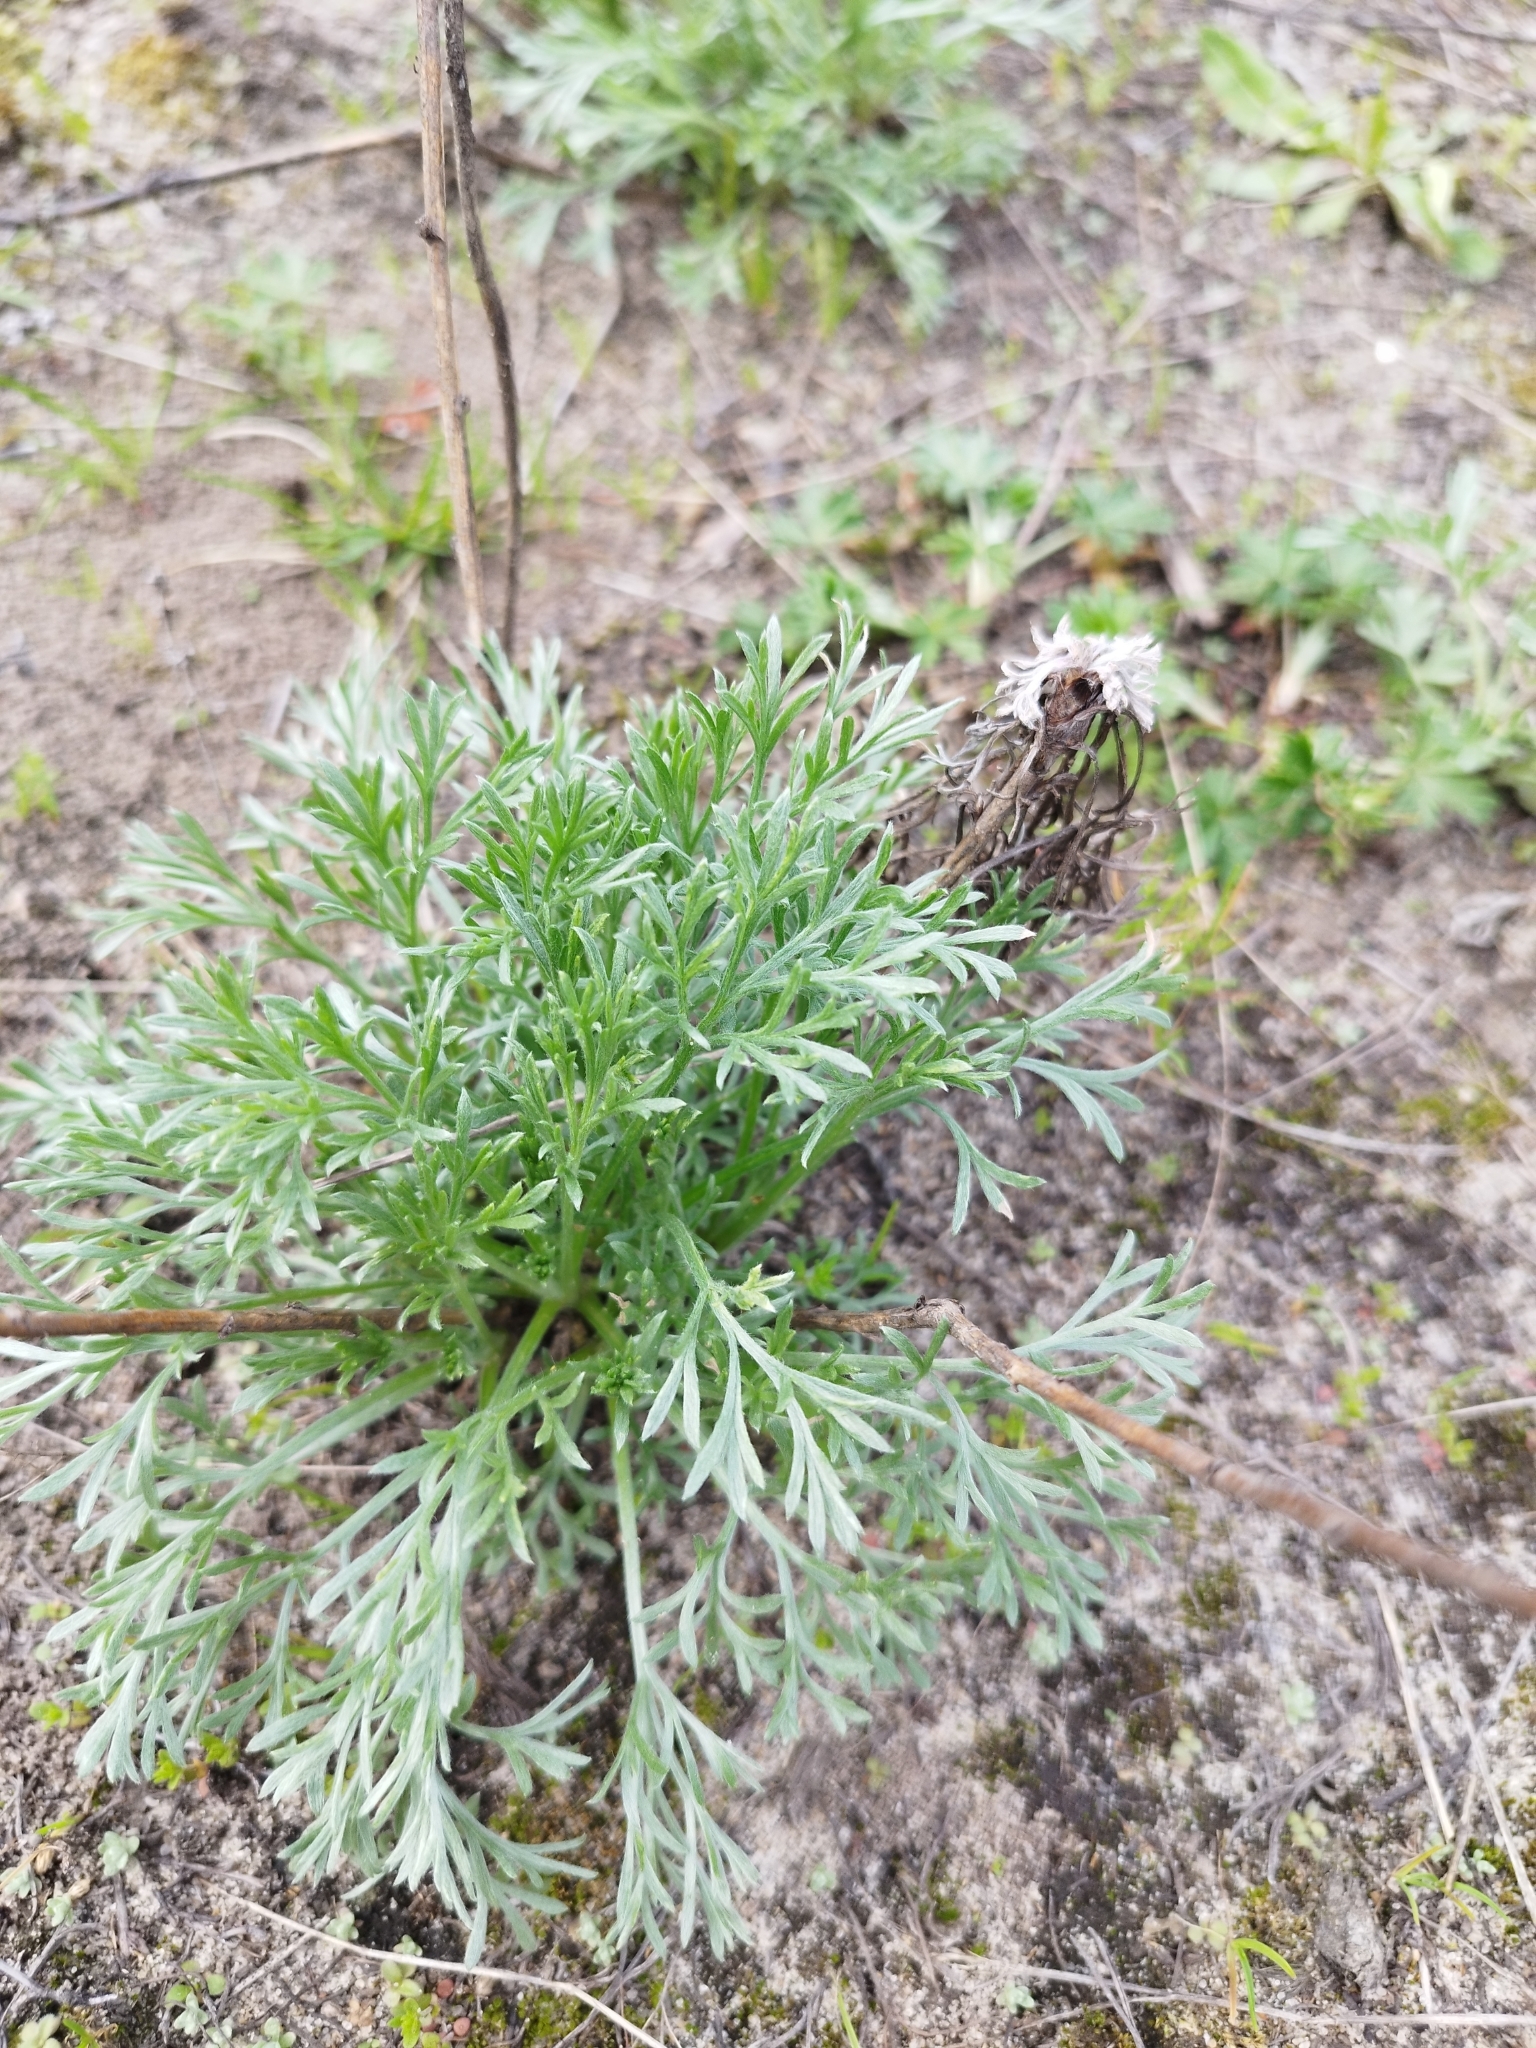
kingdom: Plantae
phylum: Tracheophyta
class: Magnoliopsida
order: Asterales
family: Asteraceae
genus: Artemisia
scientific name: Artemisia campestris
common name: Field wormwood
